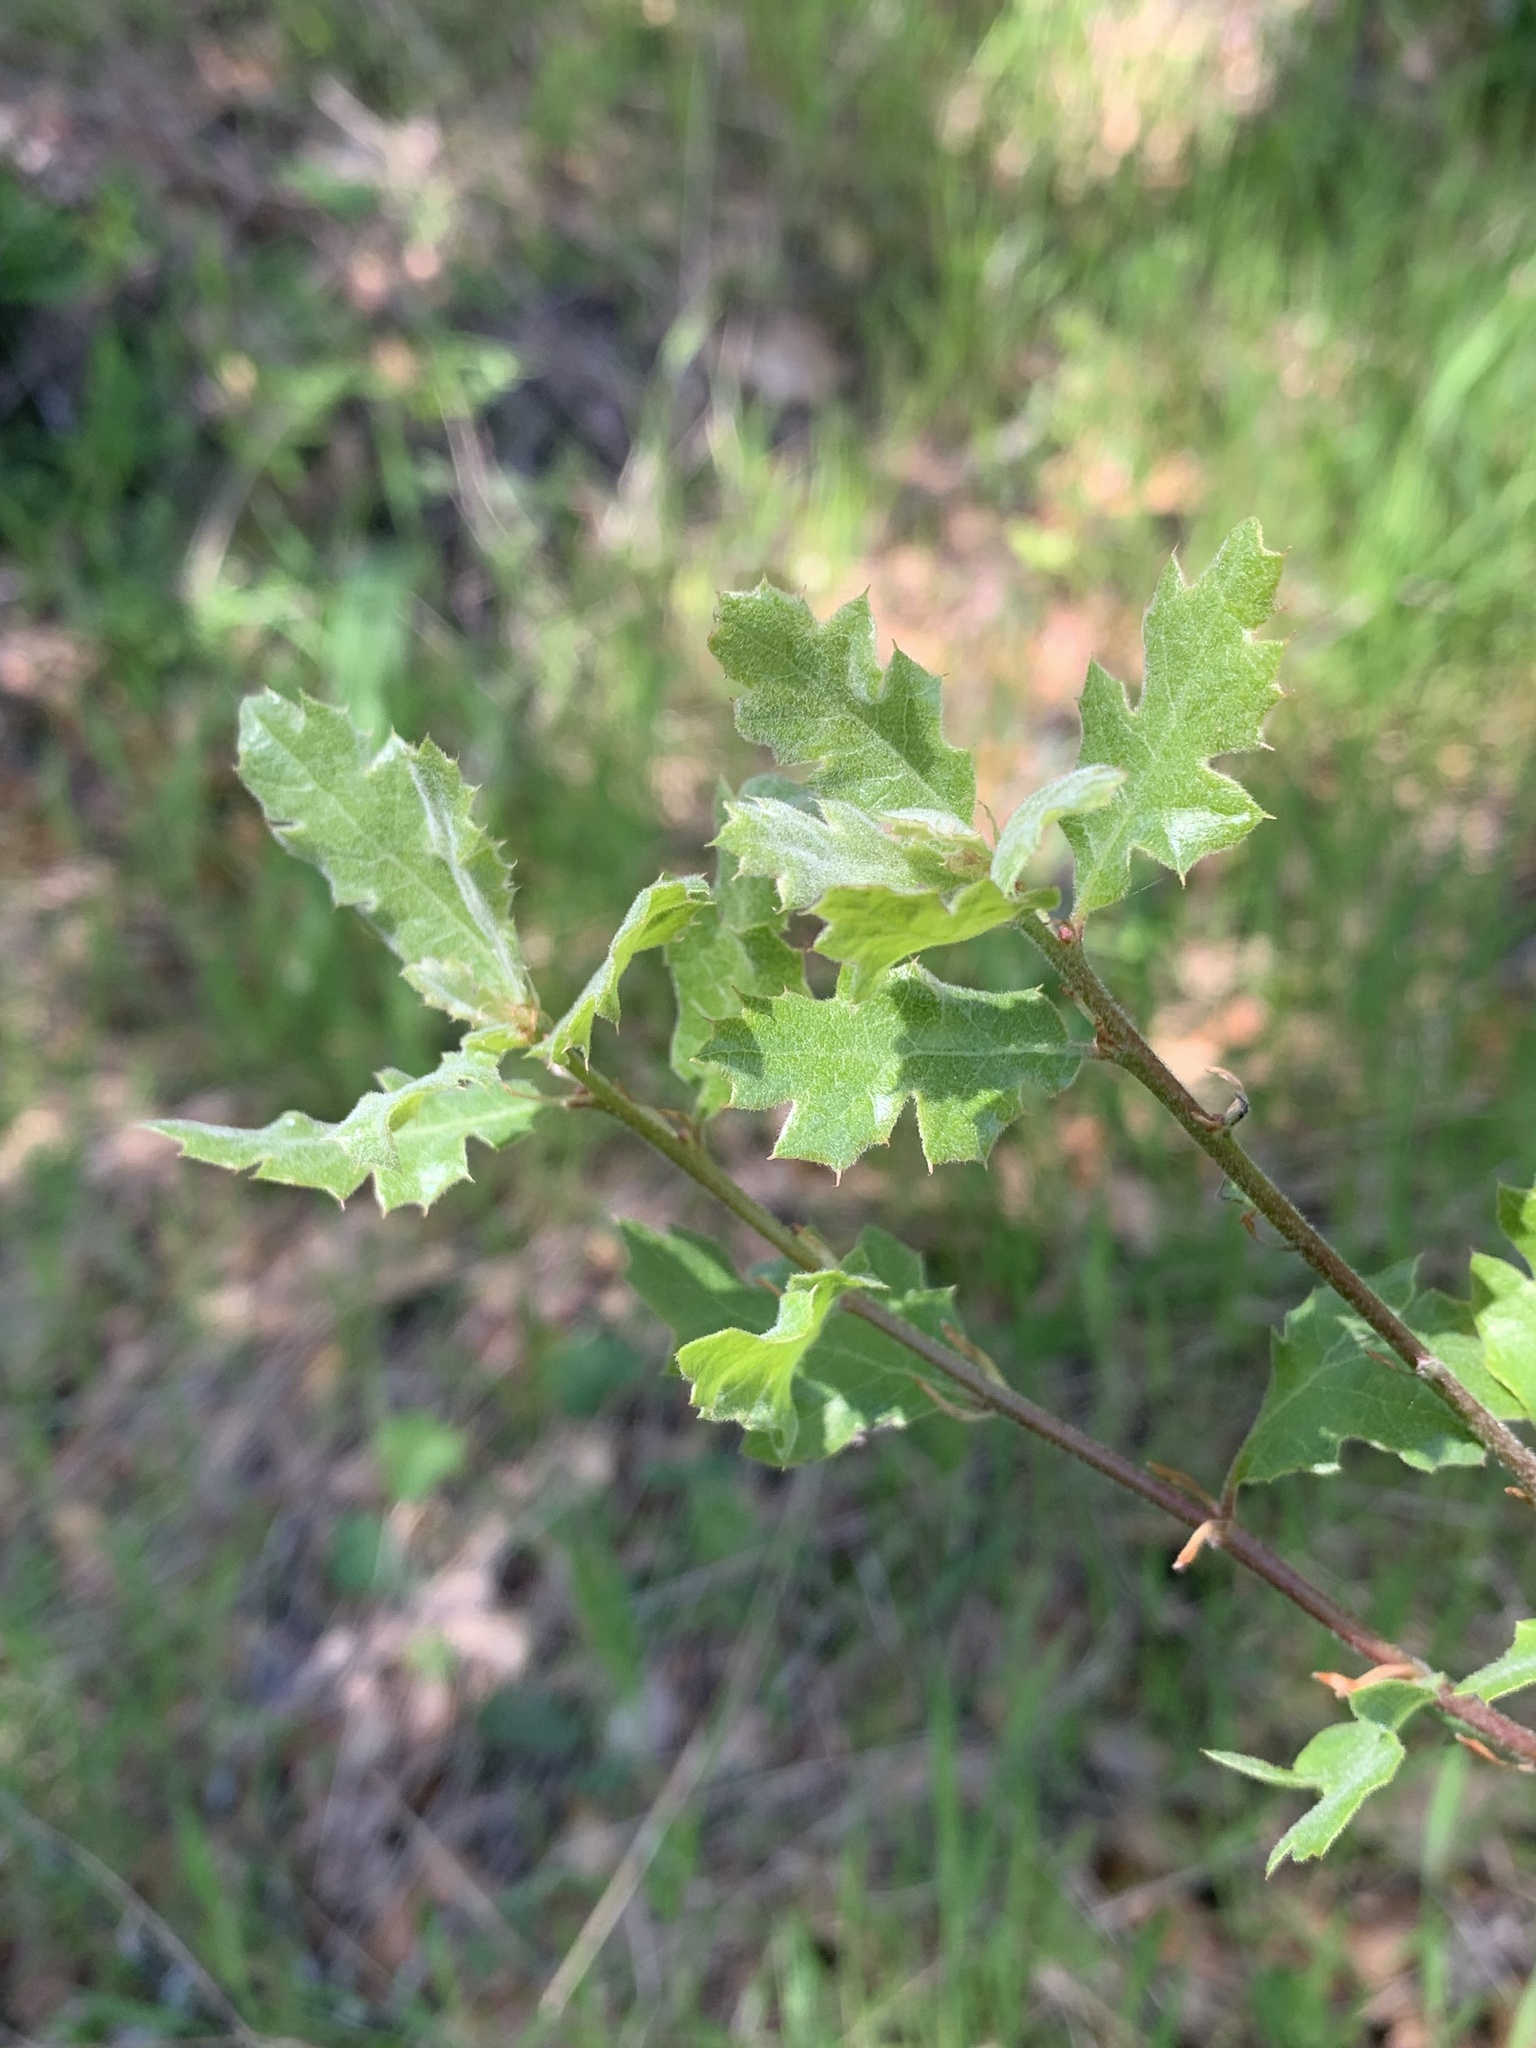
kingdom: Plantae
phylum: Tracheophyta
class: Magnoliopsida
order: Fagales
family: Fagaceae
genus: Quercus
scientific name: Quercus douglasii
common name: Blue oak
